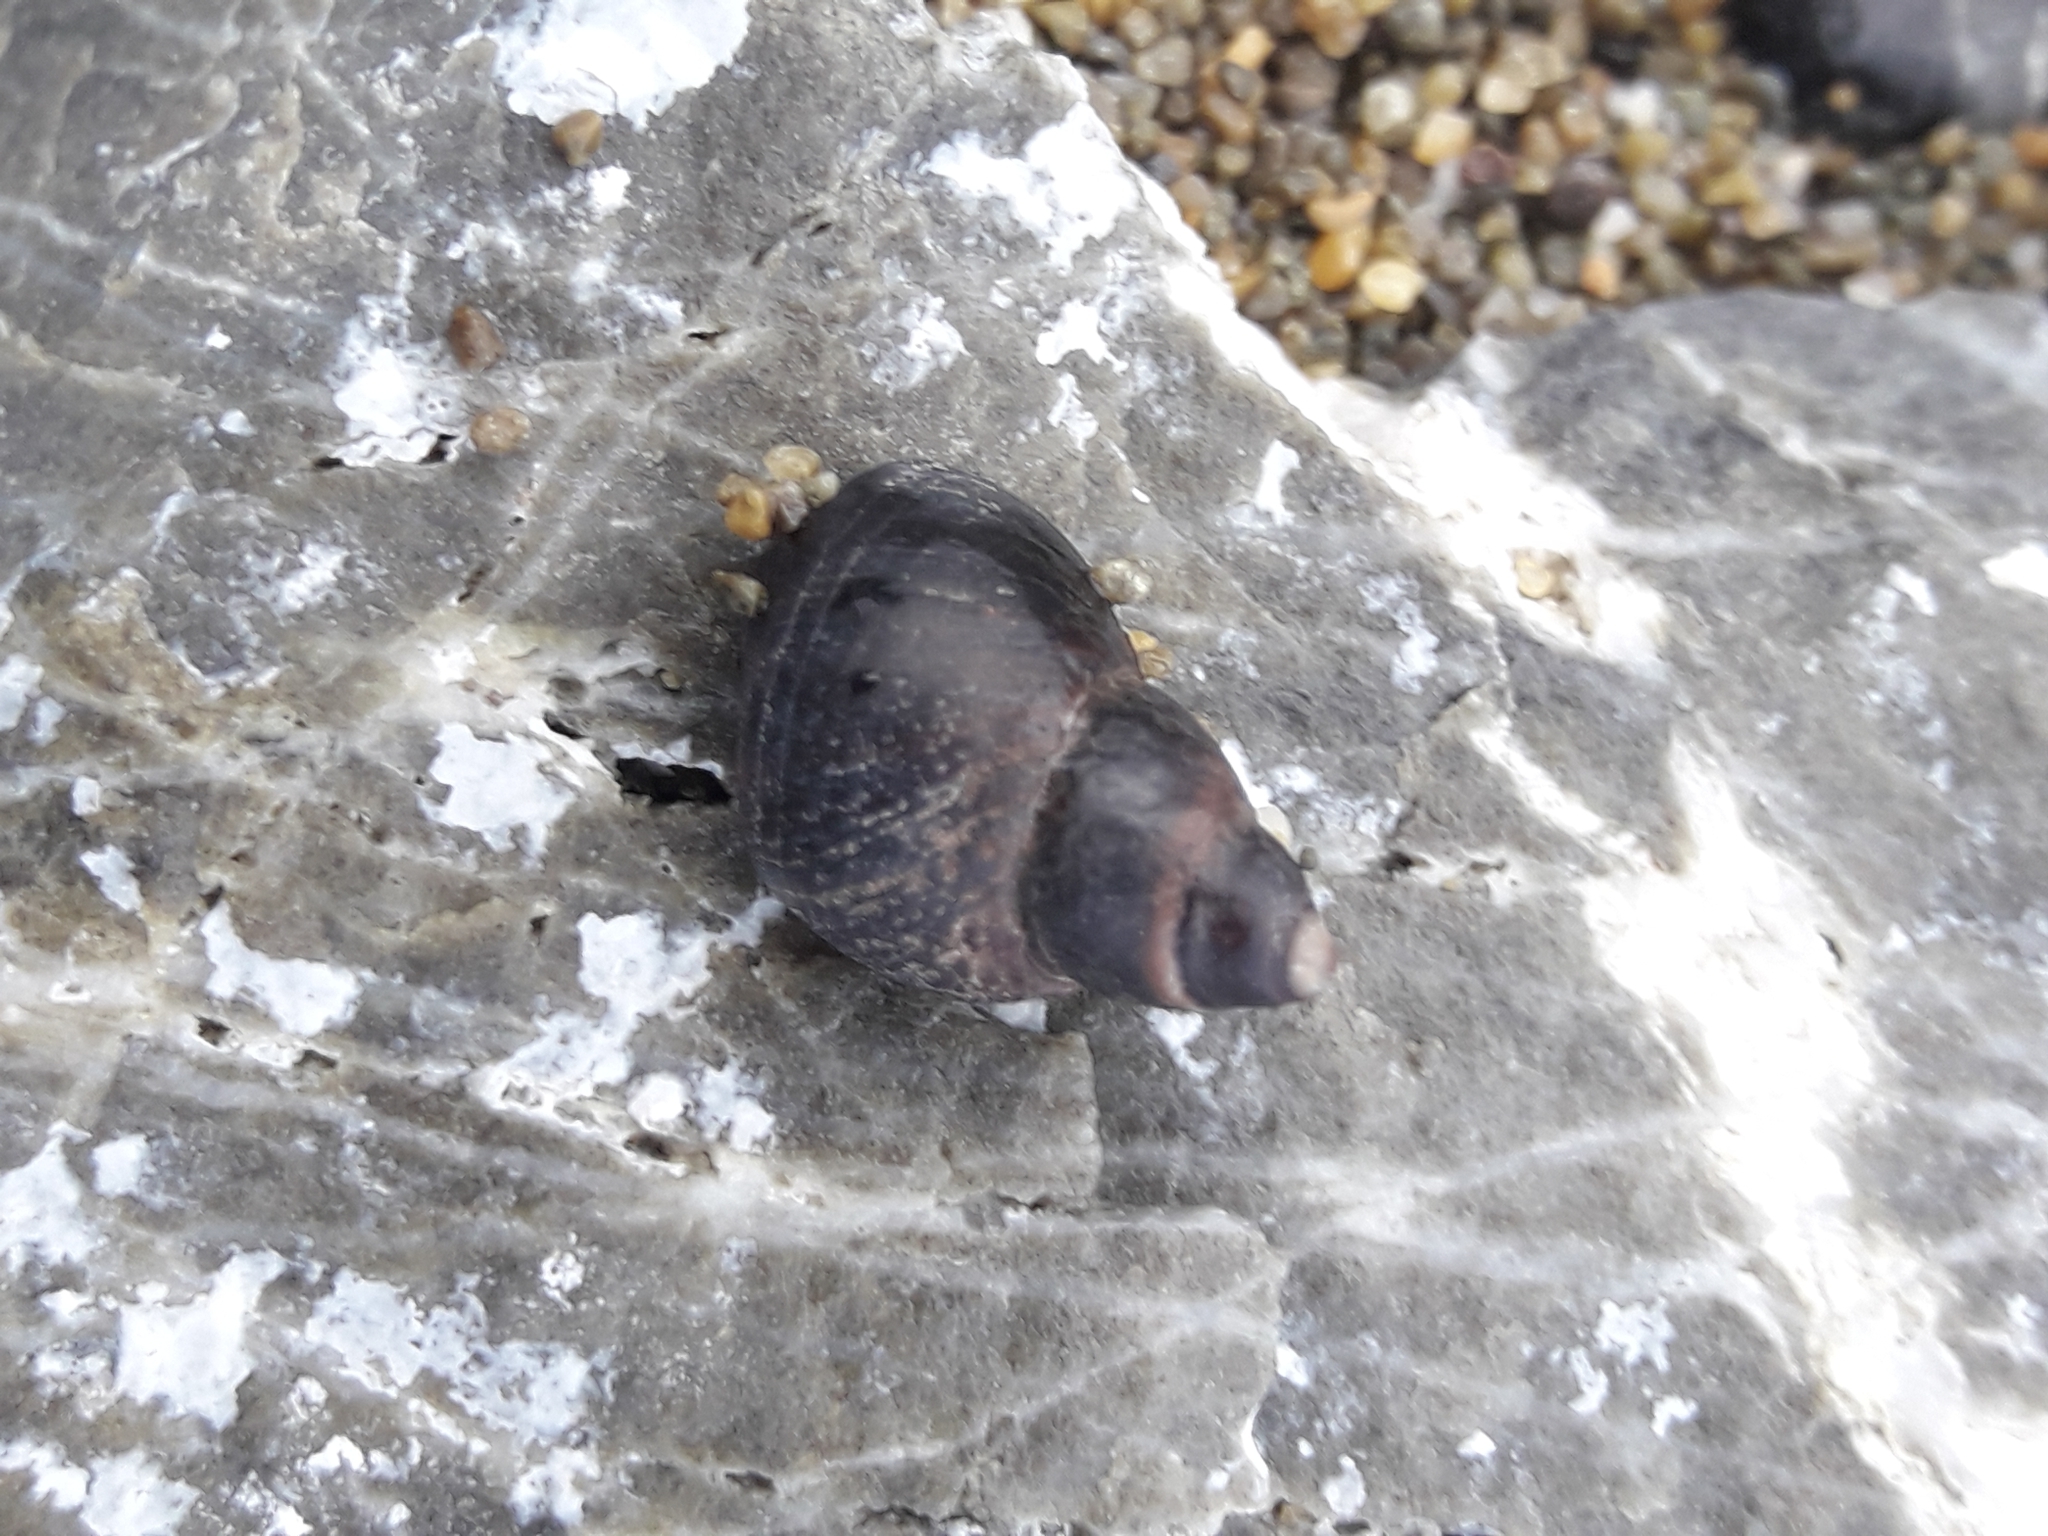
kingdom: Animalia
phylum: Mollusca
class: Gastropoda
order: Littorinimorpha
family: Littorinidae
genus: Austrolittorina
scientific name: Austrolittorina cincta
